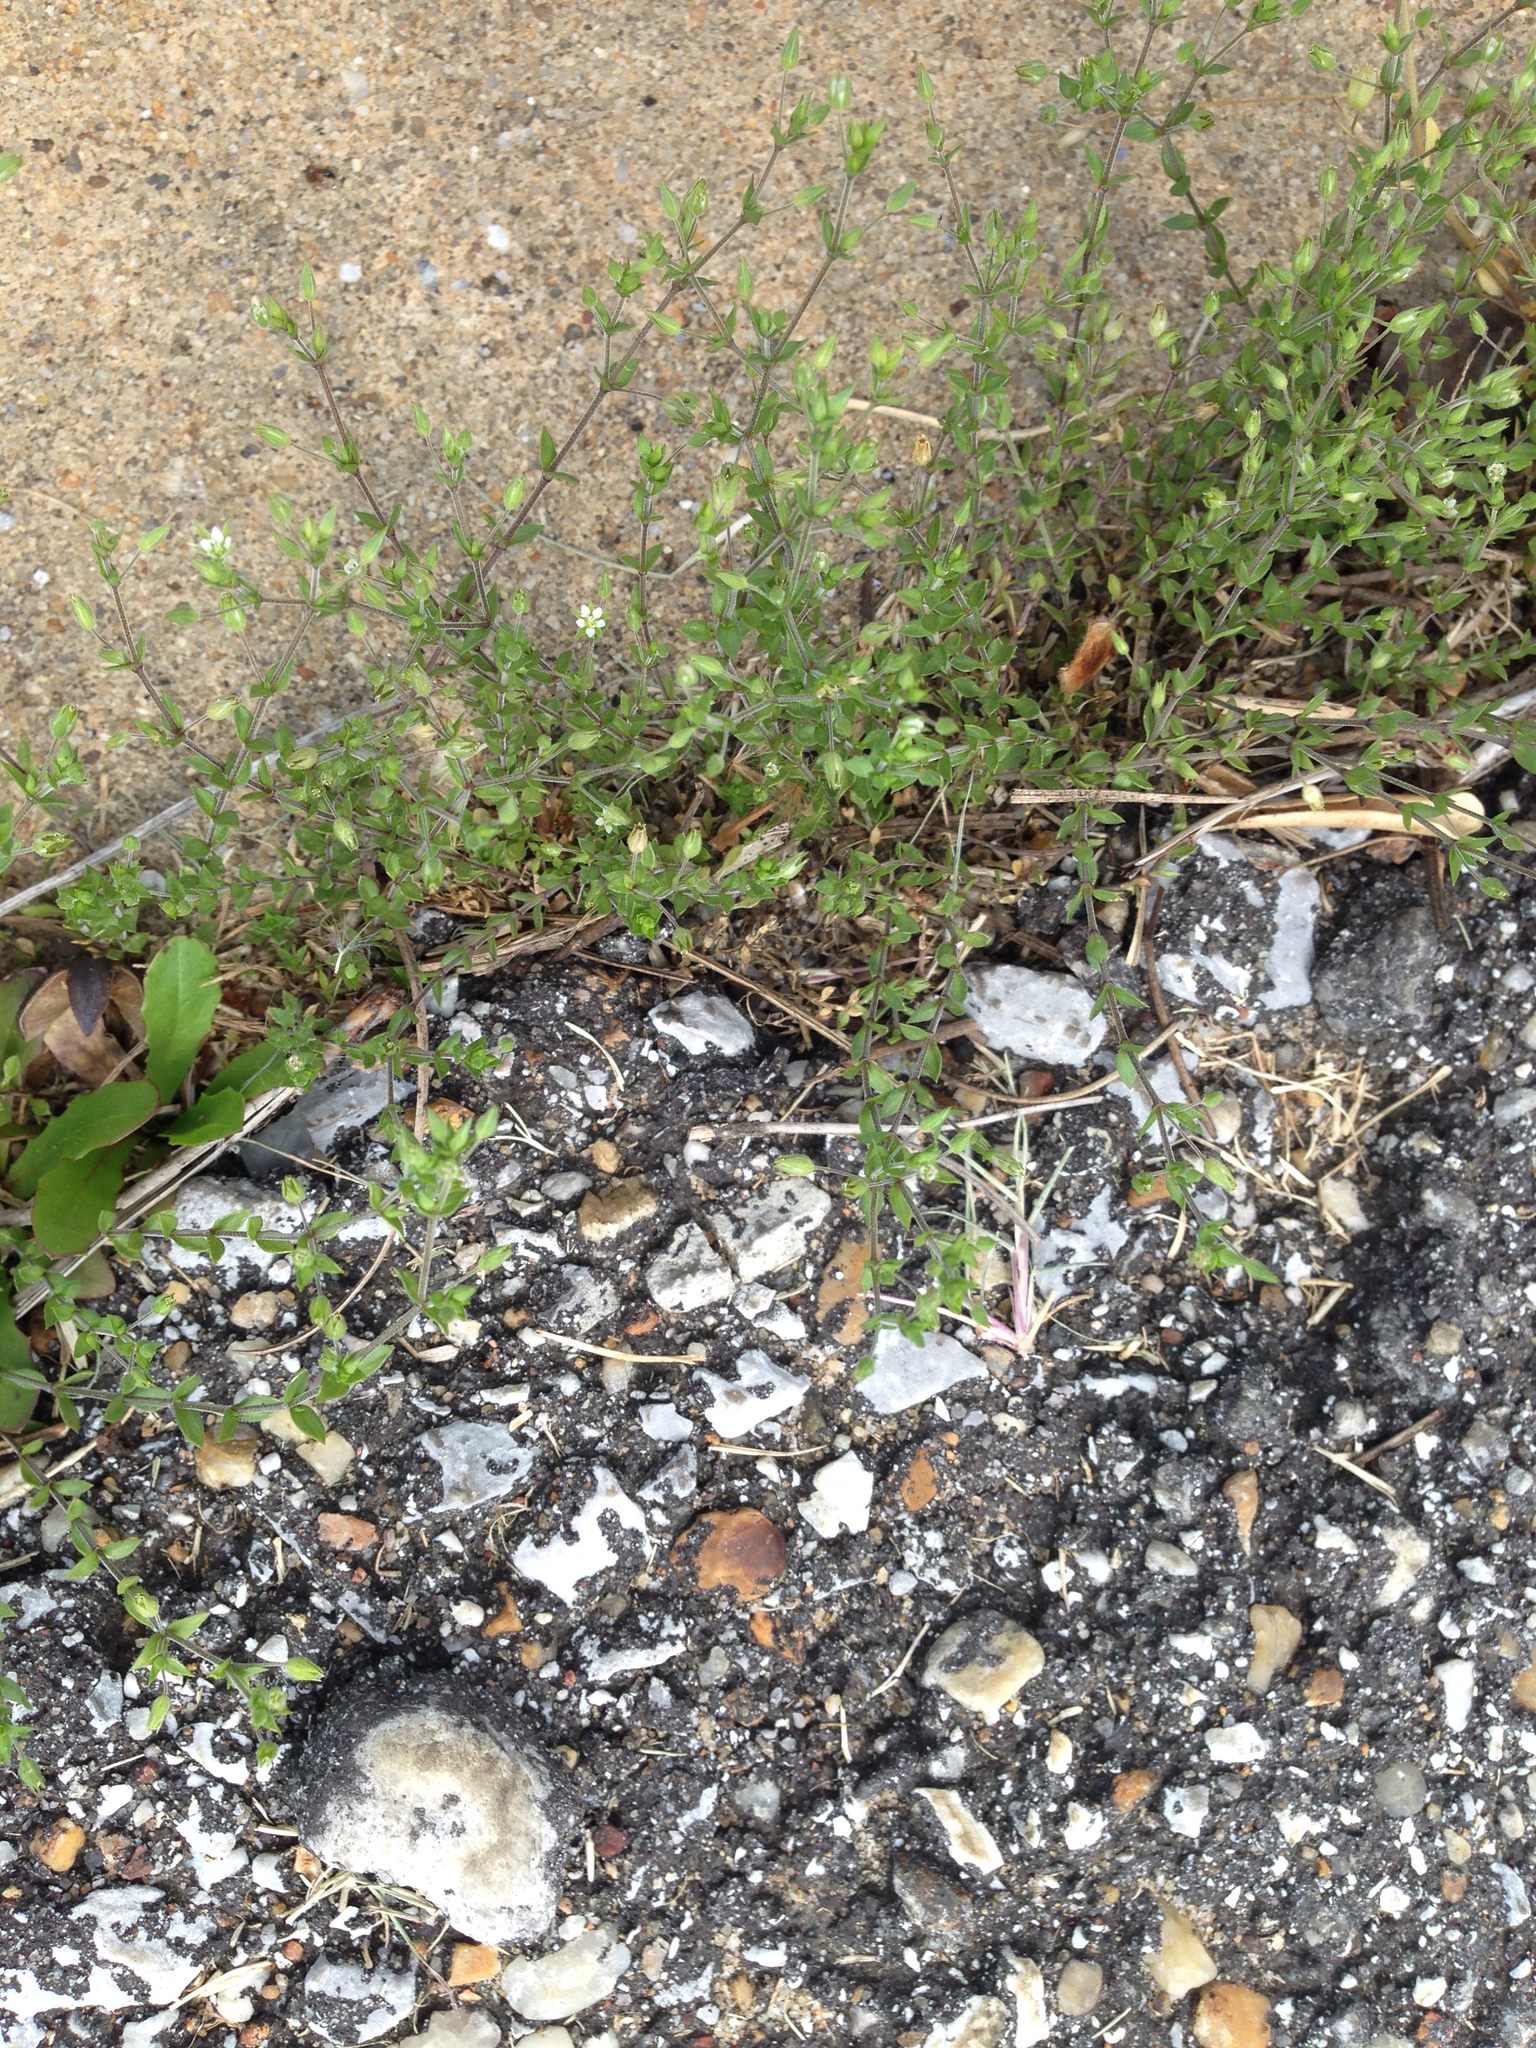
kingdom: Plantae
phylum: Tracheophyta
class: Magnoliopsida
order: Caryophyllales
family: Caryophyllaceae
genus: Arenaria
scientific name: Arenaria serpyllifolia
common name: Thyme-leaved sandwort
